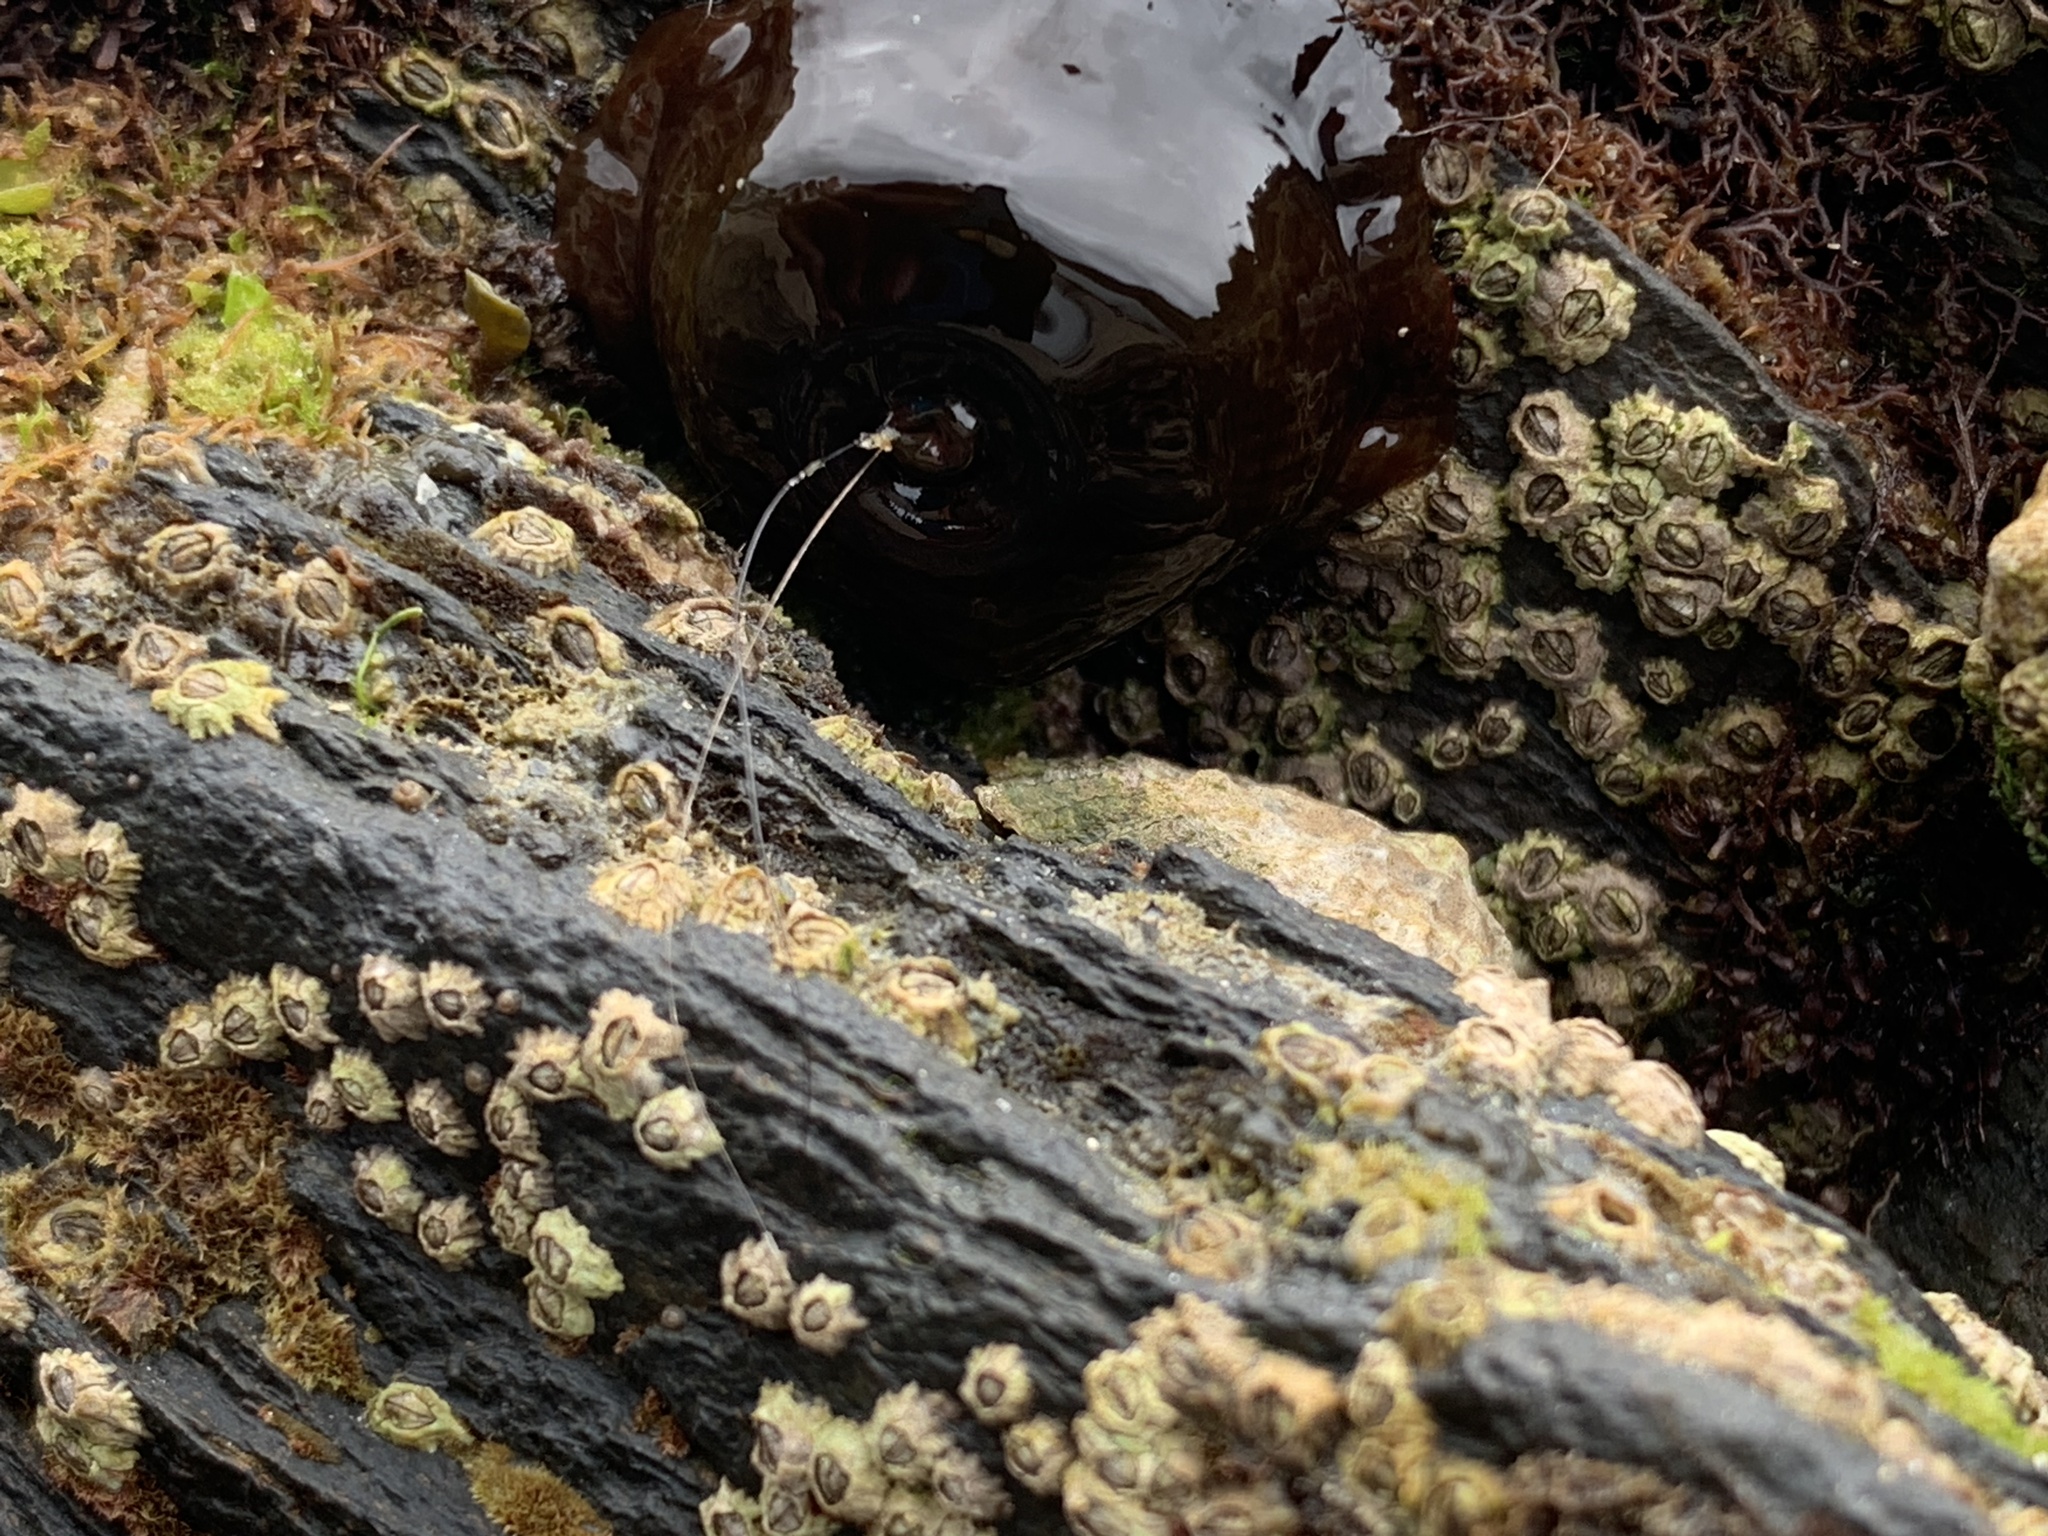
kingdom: Animalia
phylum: Cnidaria
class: Anthozoa
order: Actiniaria
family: Actiniidae
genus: Actinia
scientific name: Actinia equina
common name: Beadlet anemone
